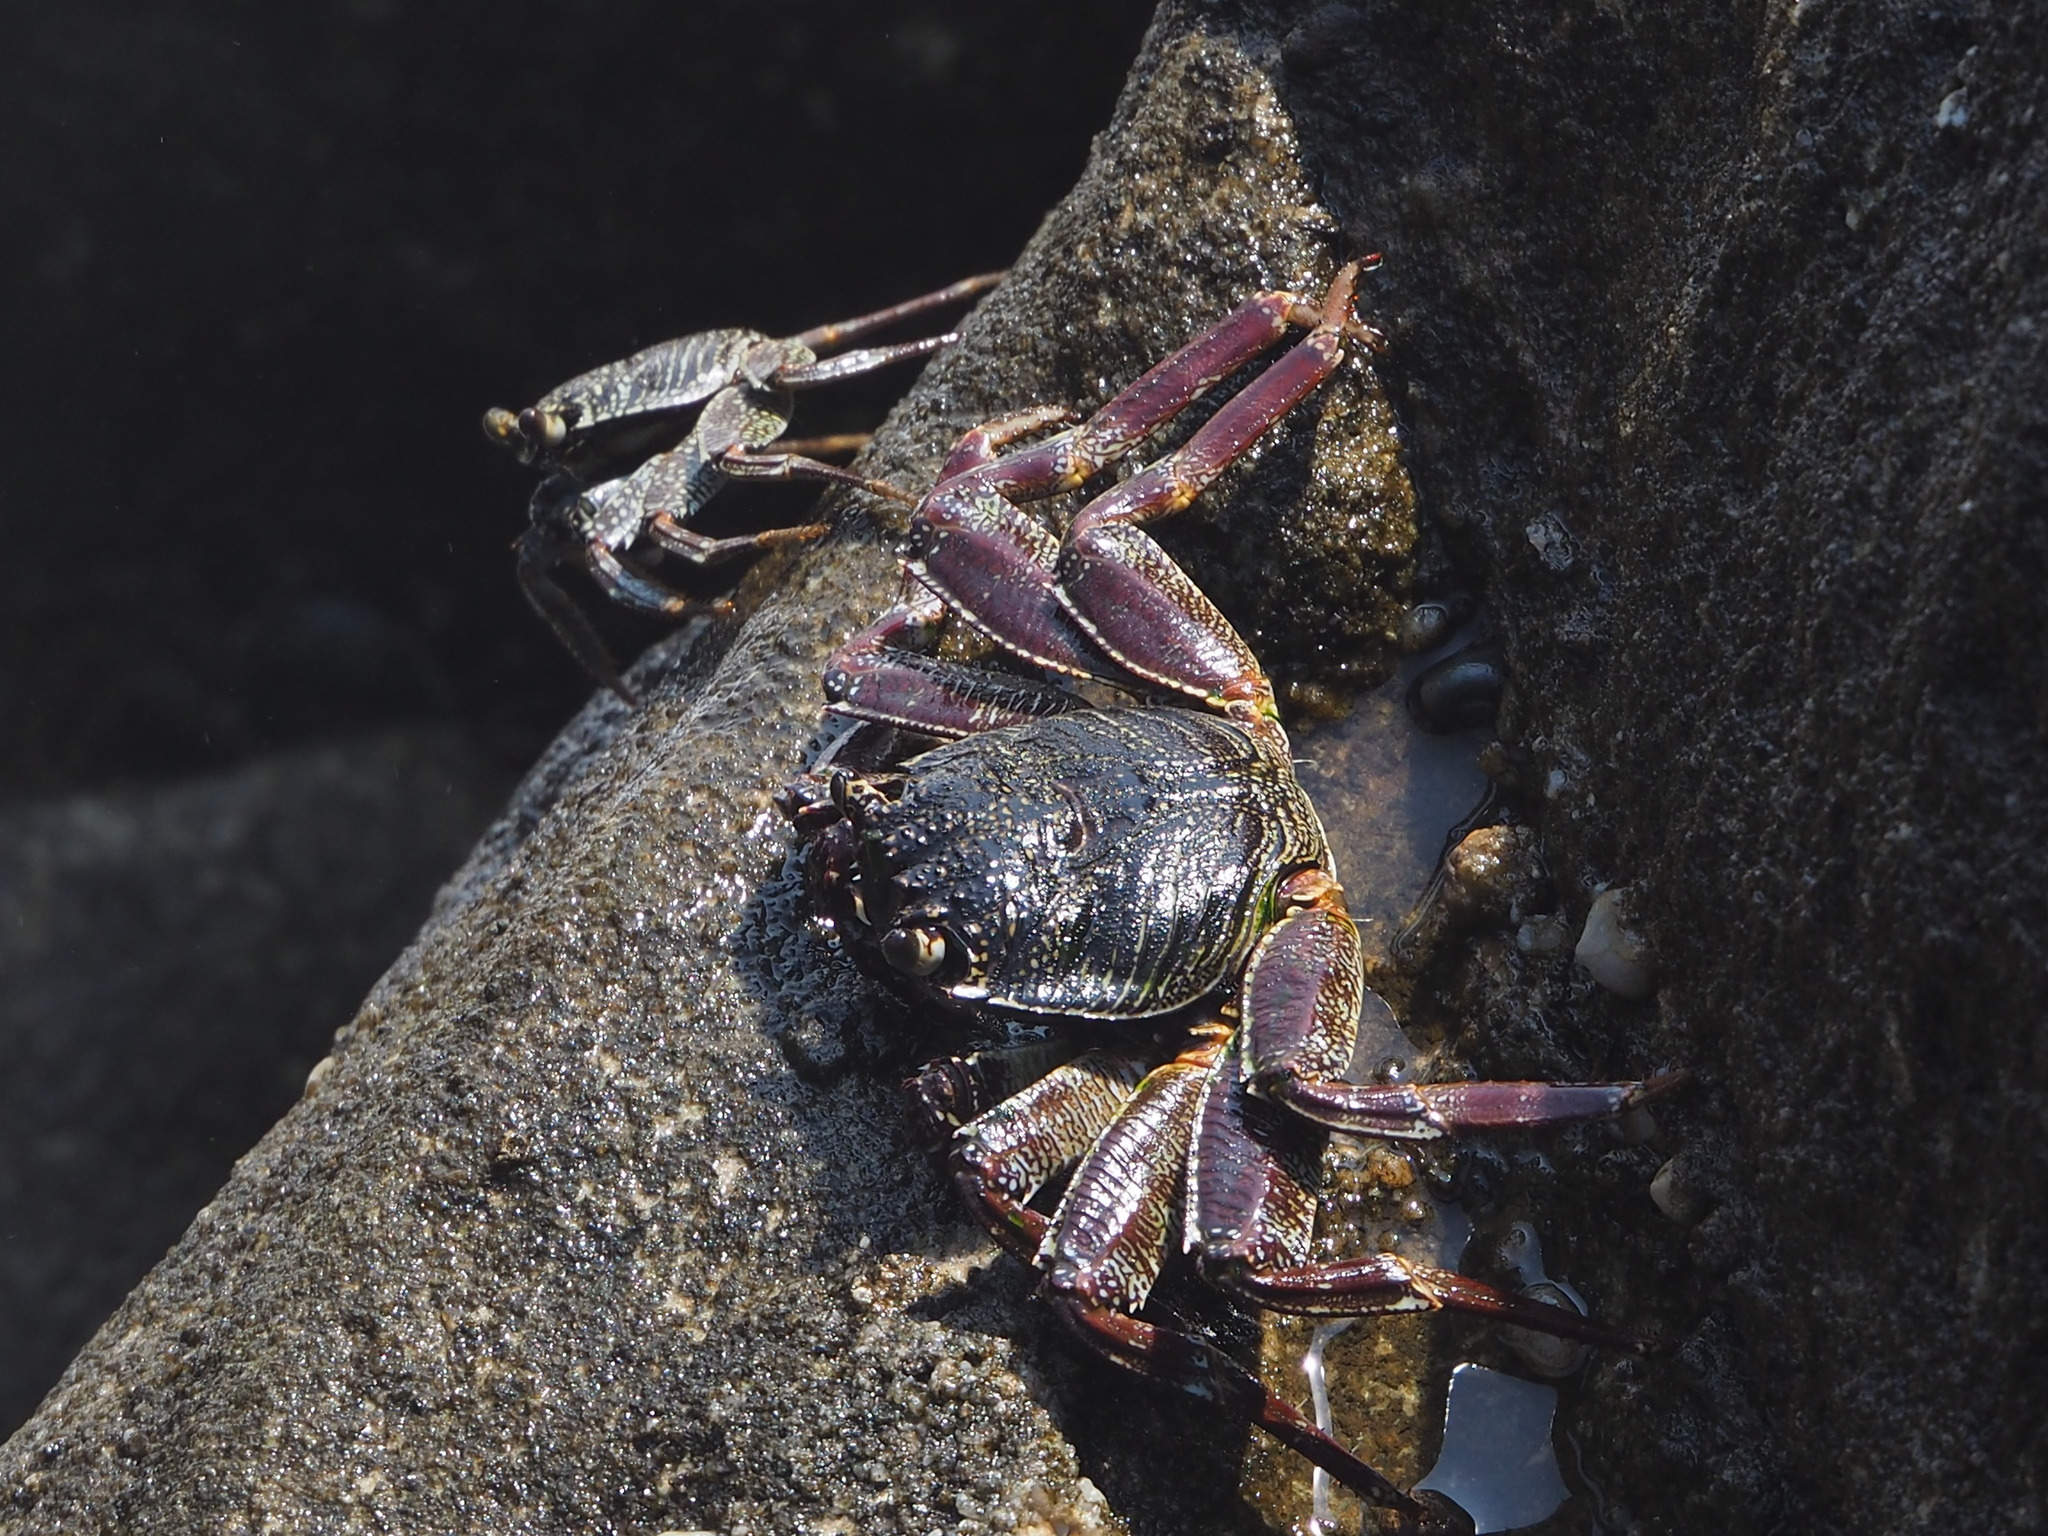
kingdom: Animalia
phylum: Arthropoda
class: Malacostraca
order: Decapoda
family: Grapsidae
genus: Grapsus
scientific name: Grapsus tenuicrustatus
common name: Natal lightfoot crab
